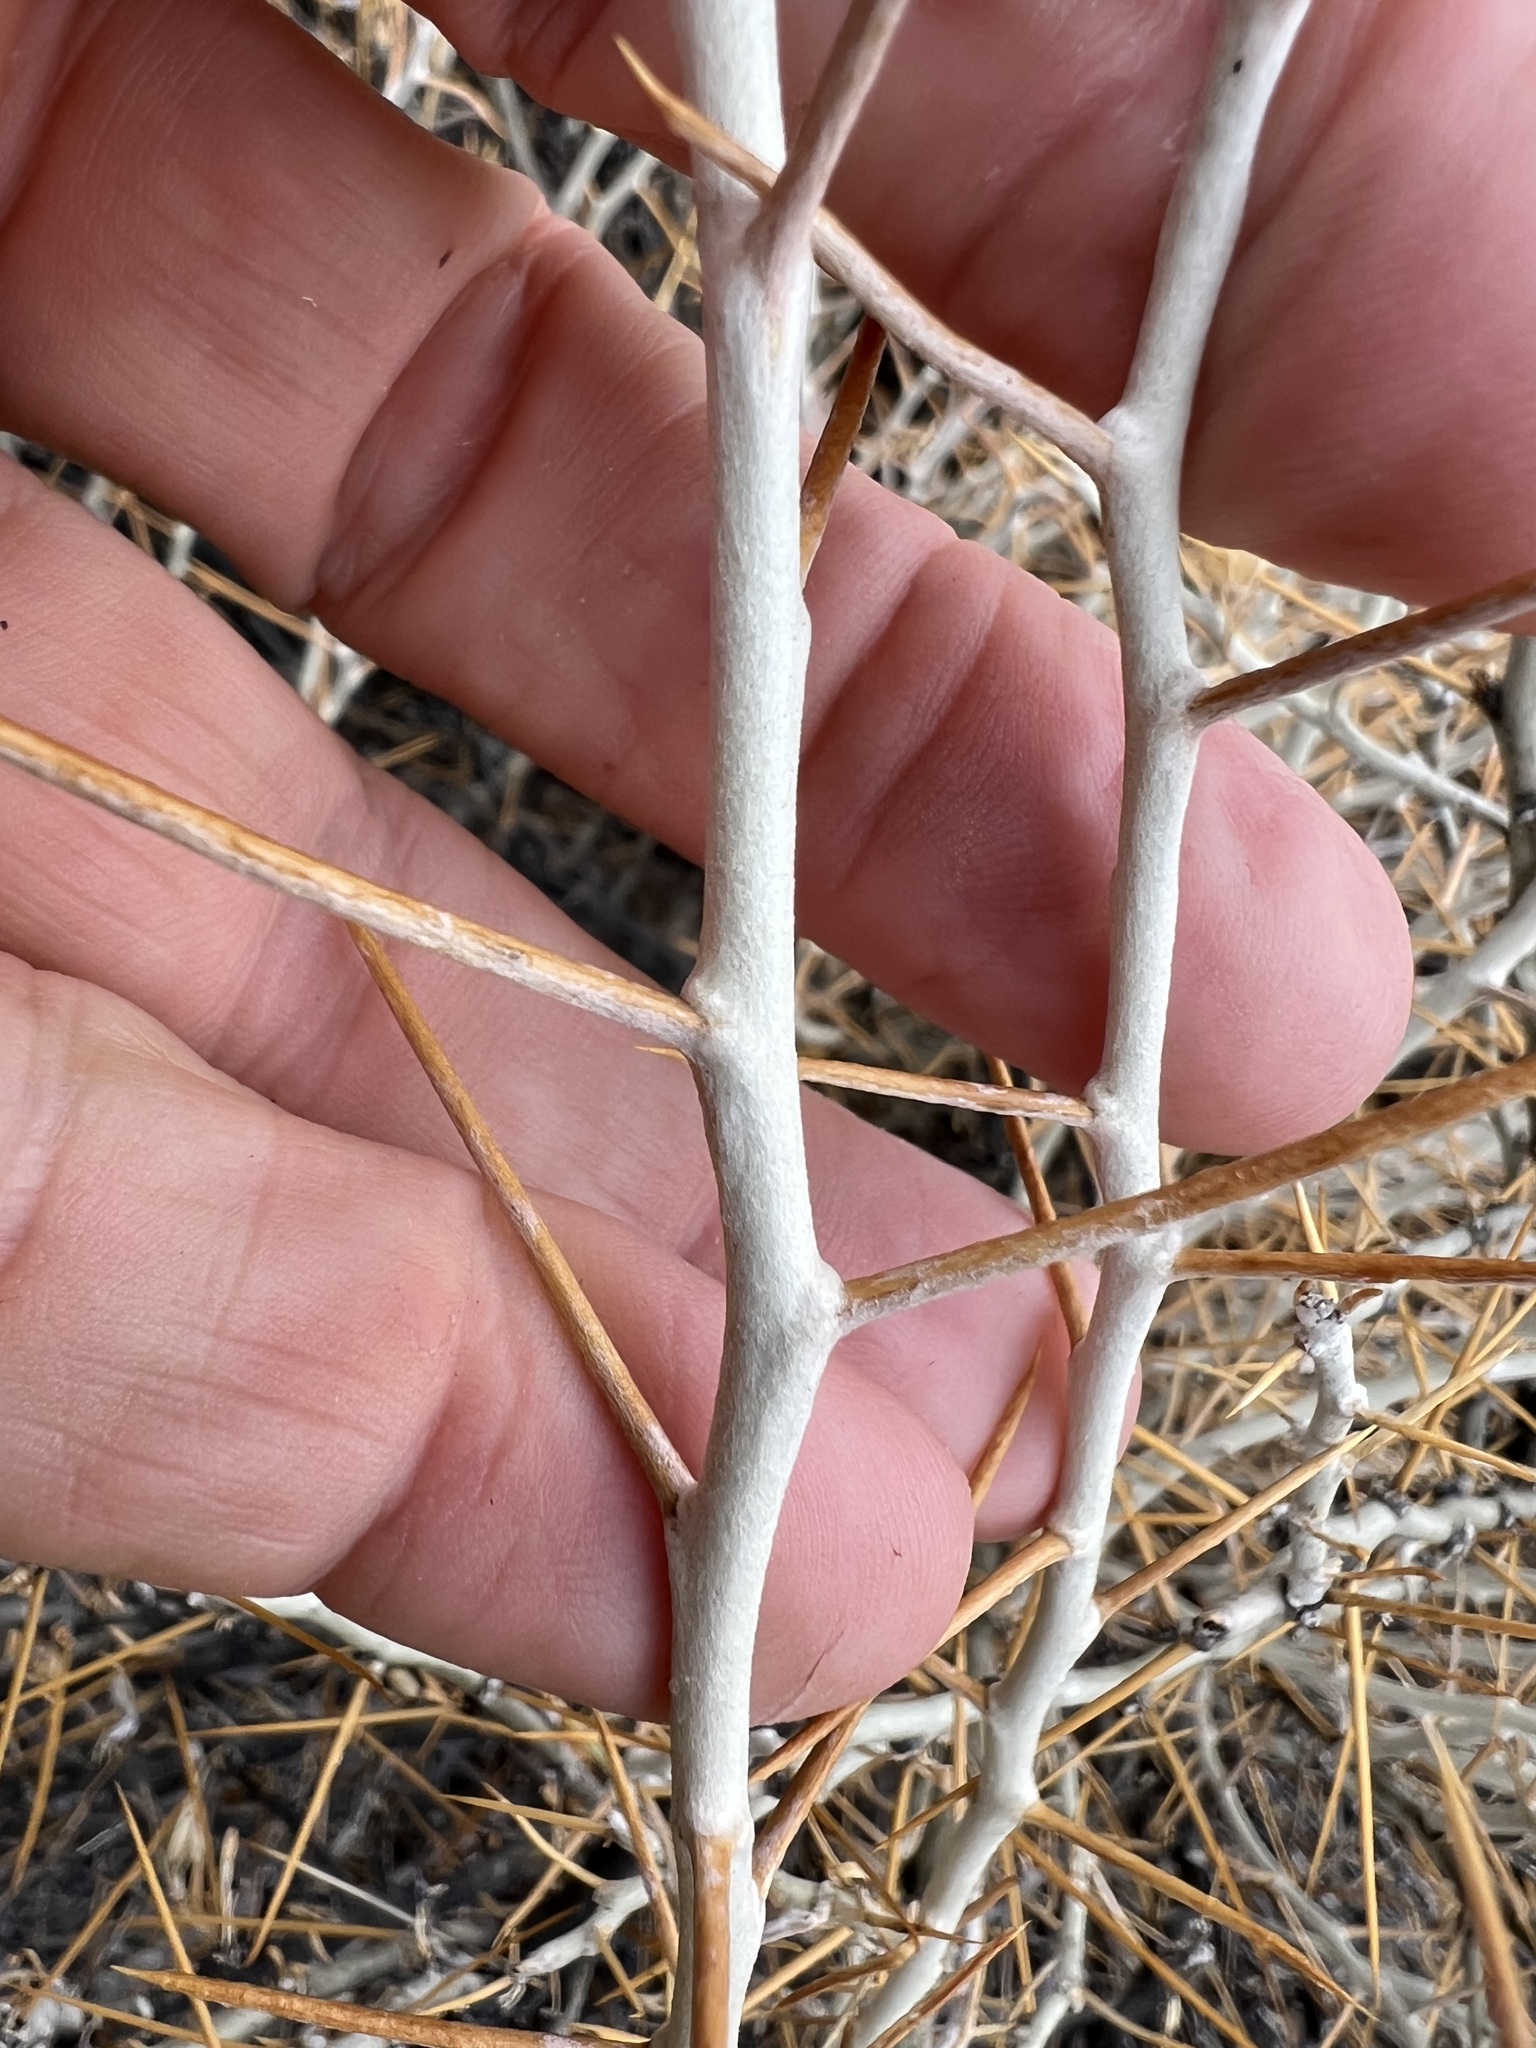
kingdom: Plantae
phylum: Tracheophyta
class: Magnoliopsida
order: Asterales
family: Asteraceae
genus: Tetradymia
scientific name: Tetradymia axillaris
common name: Long-spine horsebrush
